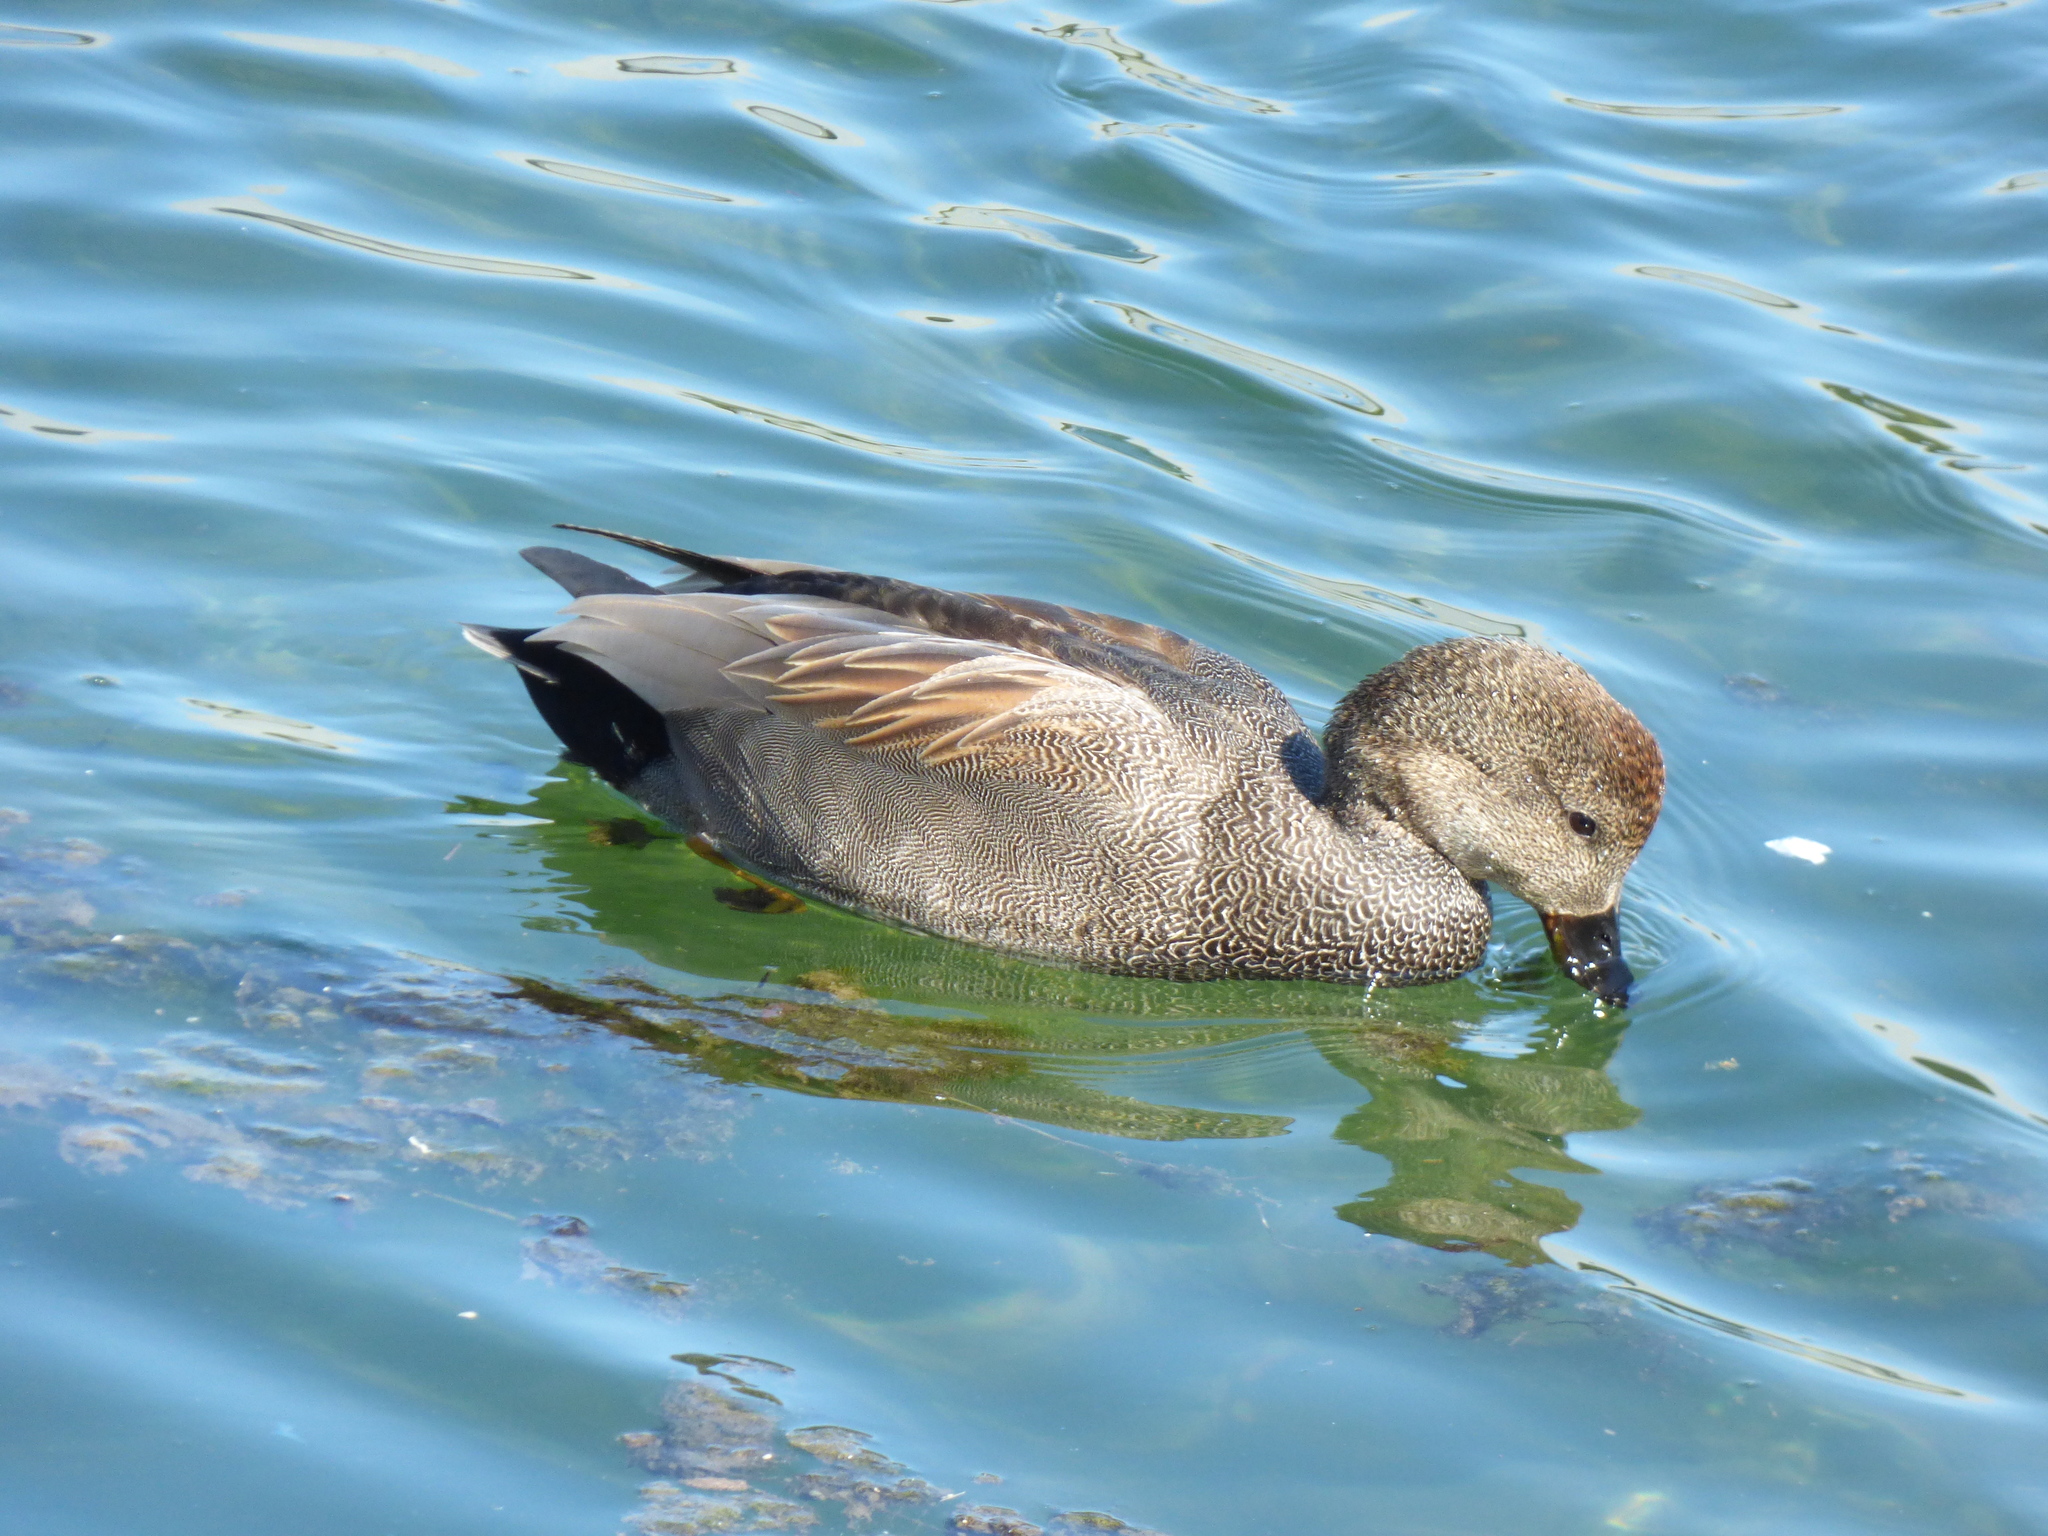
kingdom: Animalia
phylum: Chordata
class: Aves
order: Anseriformes
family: Anatidae
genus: Mareca
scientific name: Mareca strepera
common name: Gadwall
